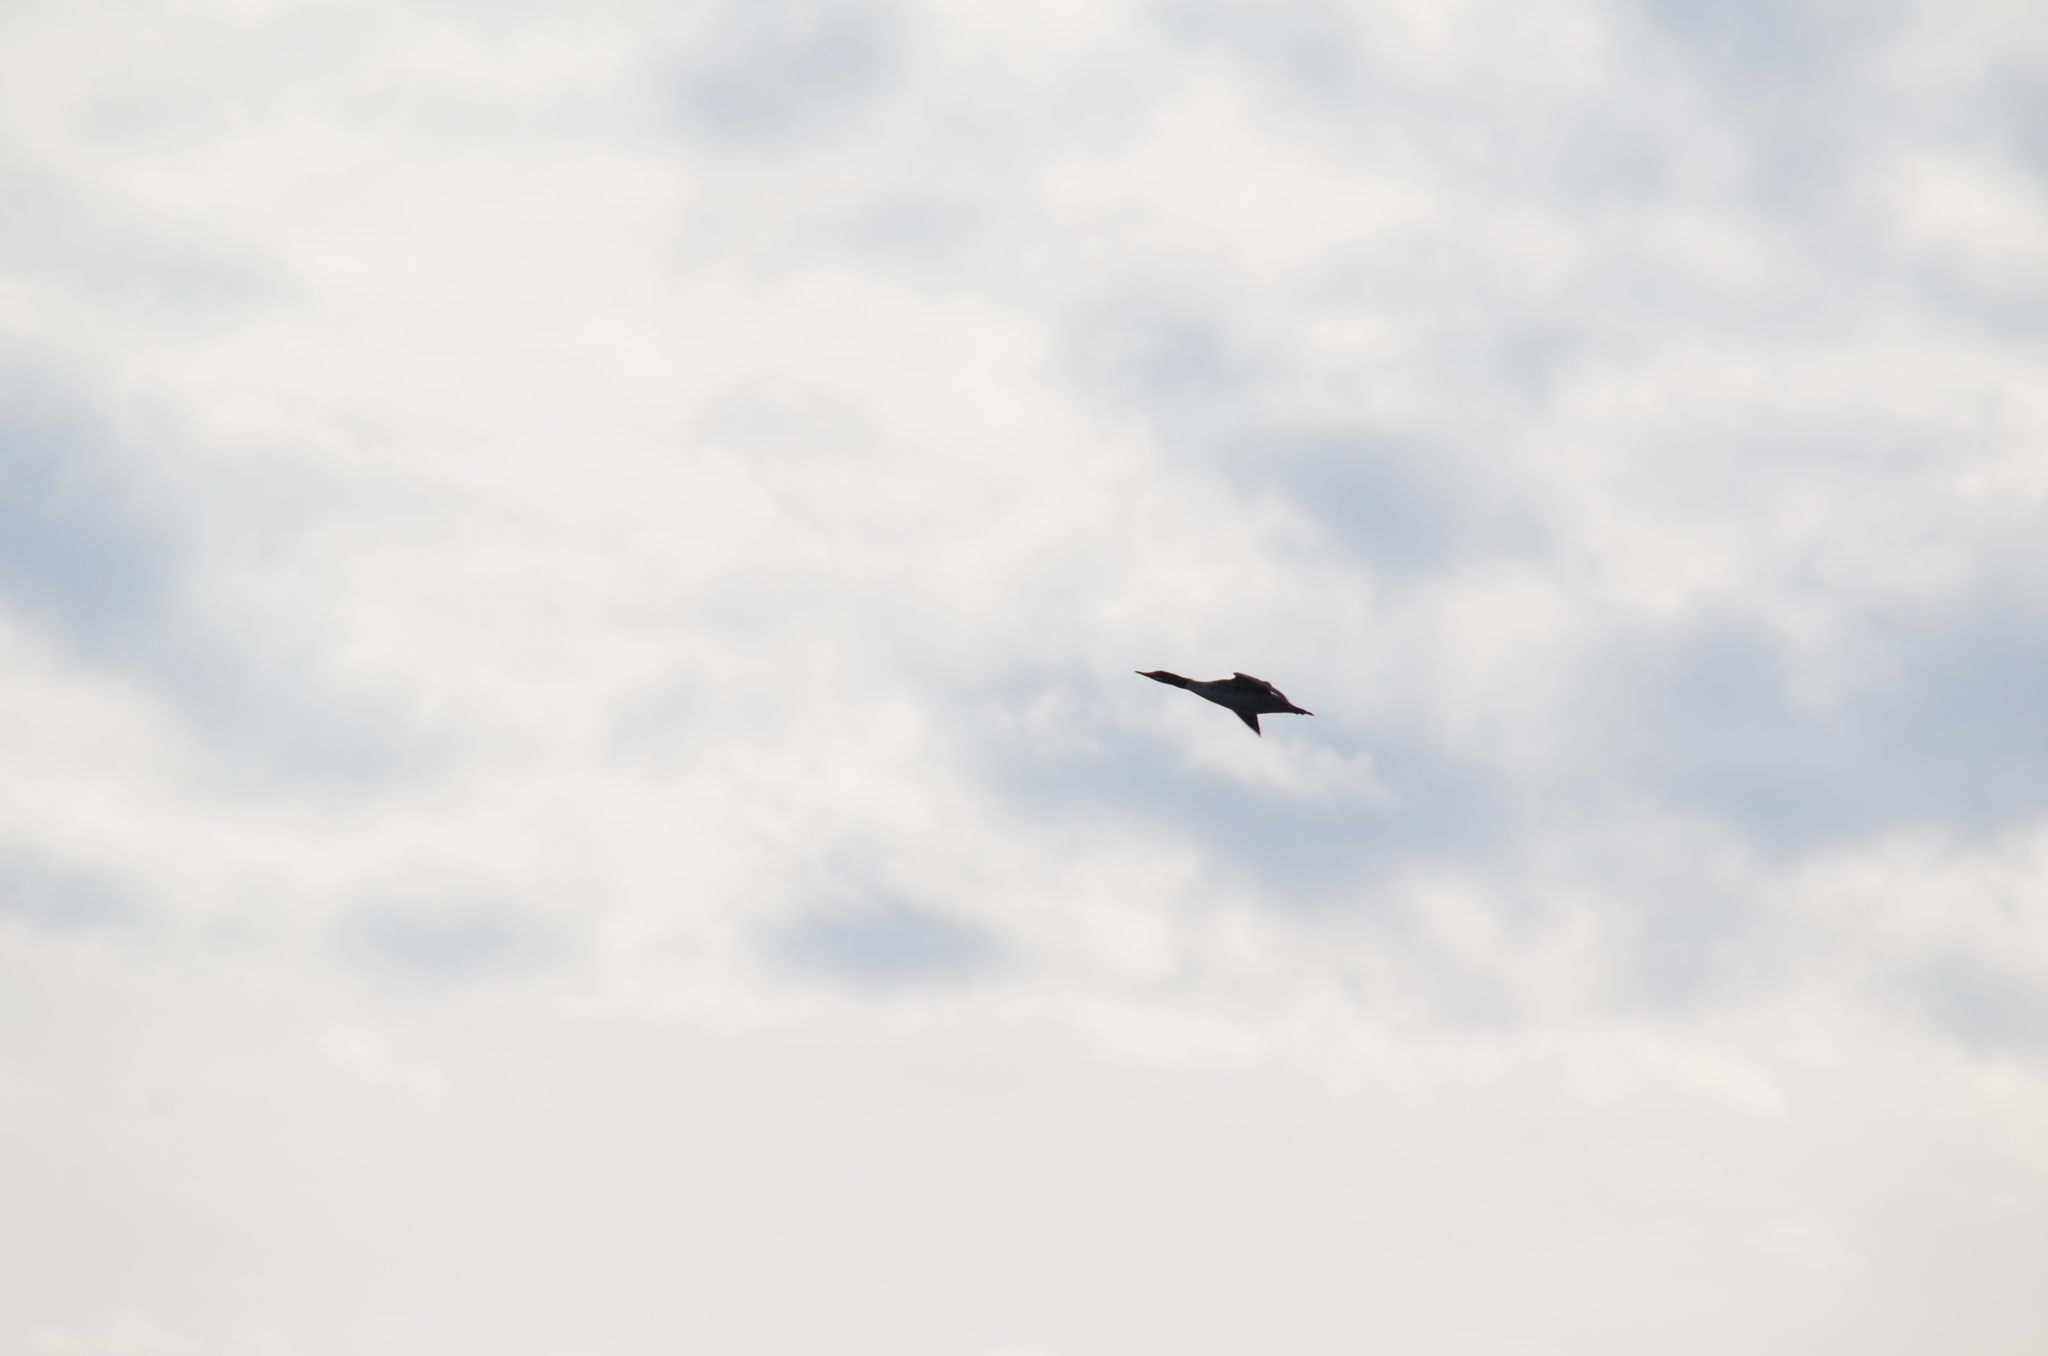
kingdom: Animalia
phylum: Chordata
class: Aves
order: Anseriformes
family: Anatidae
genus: Mergus
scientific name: Mergus merganser
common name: Common merganser
